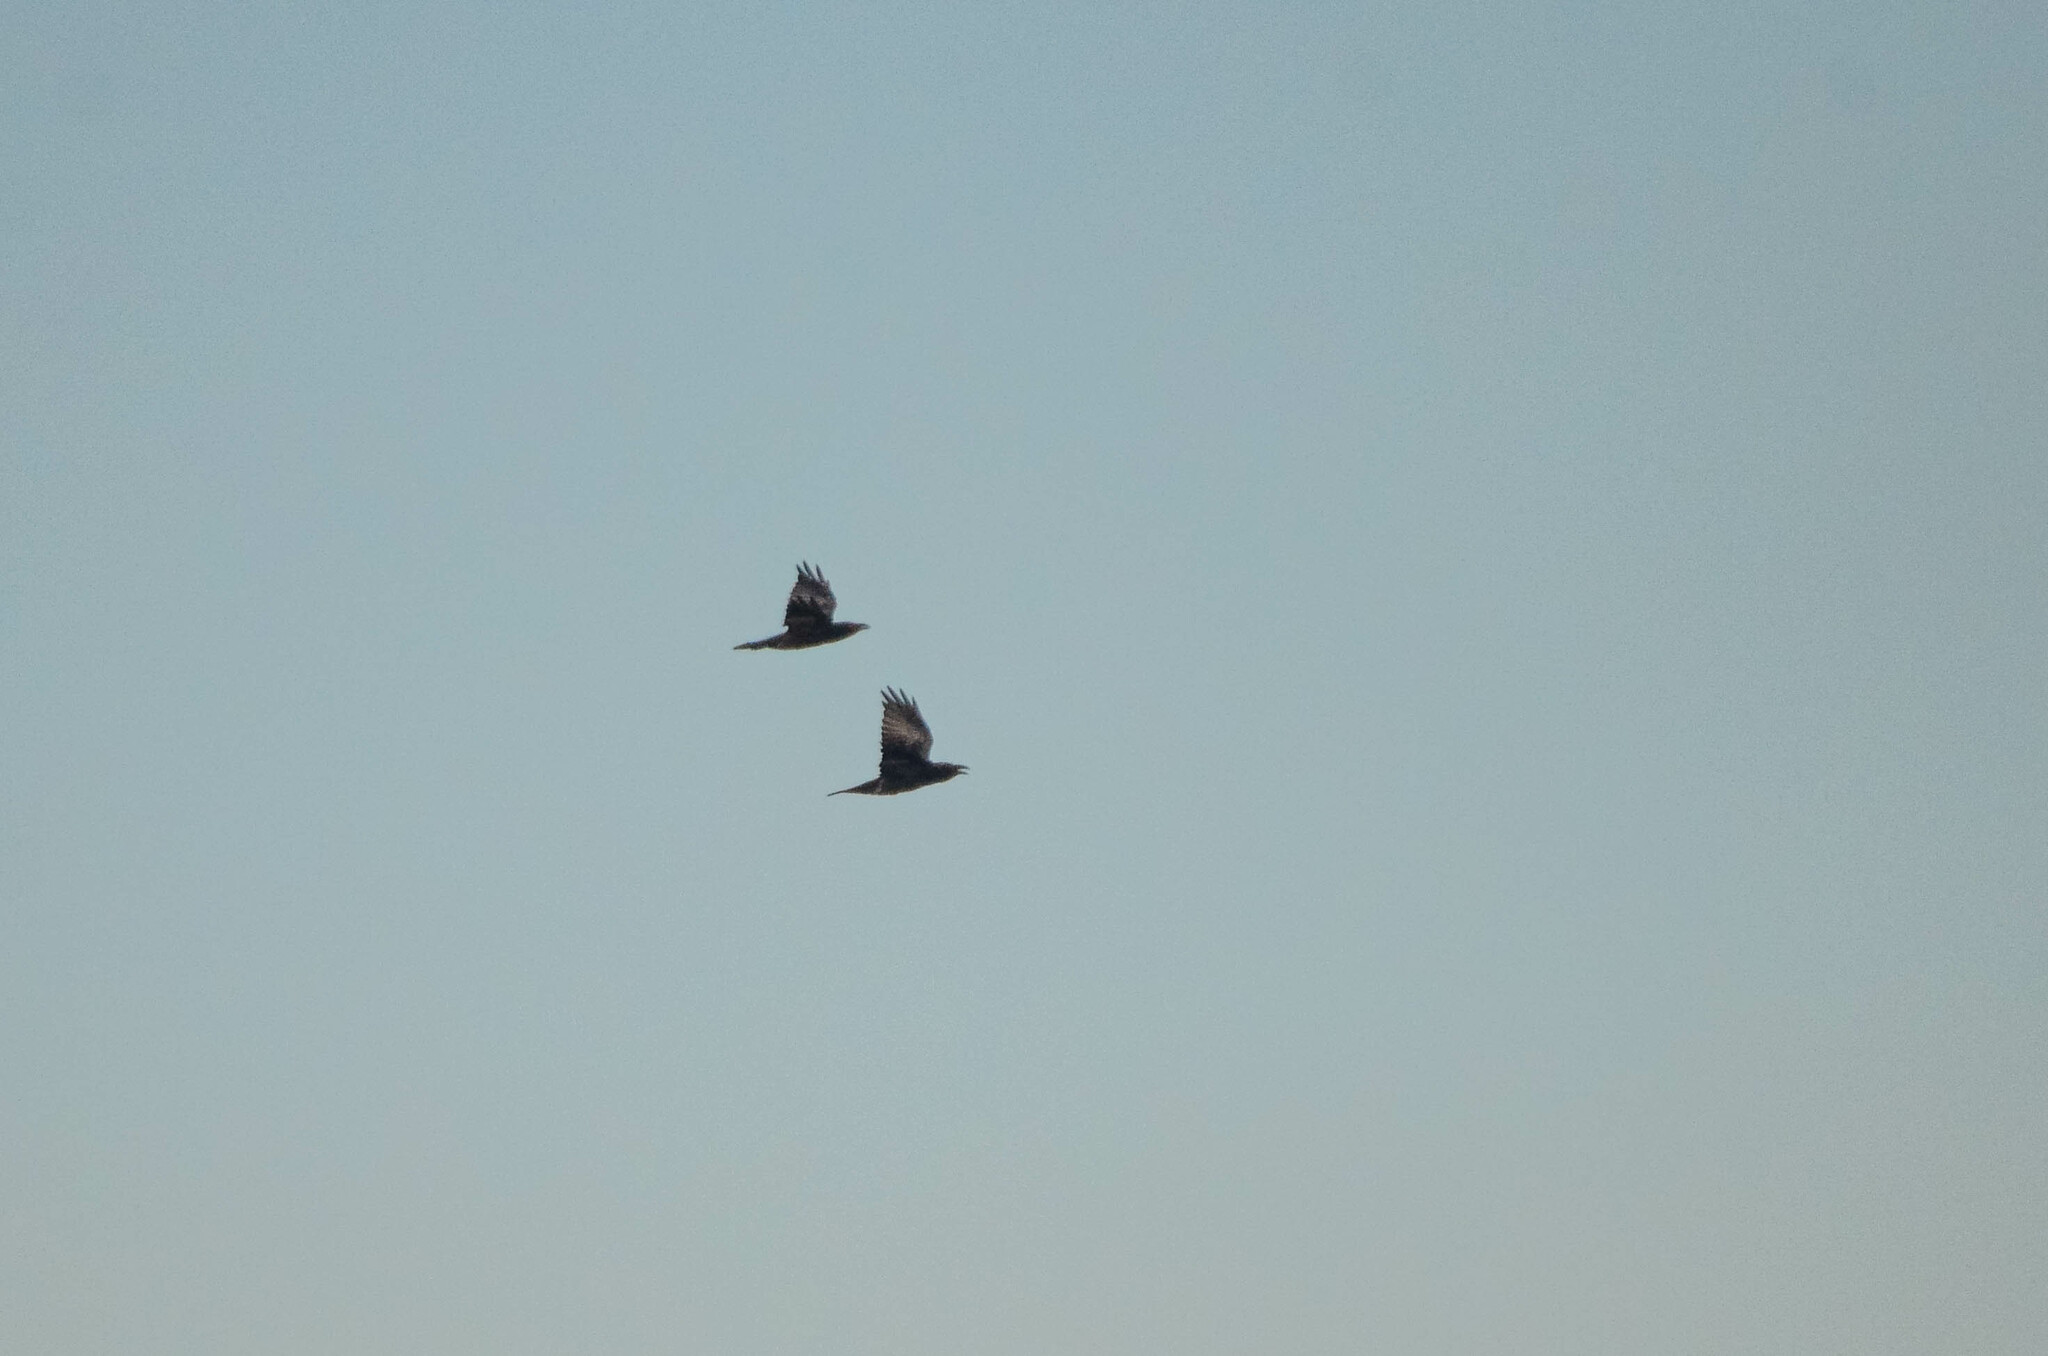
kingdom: Animalia
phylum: Chordata
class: Aves
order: Passeriformes
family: Corvidae
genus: Corvus
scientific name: Corvus corax
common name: Common raven
